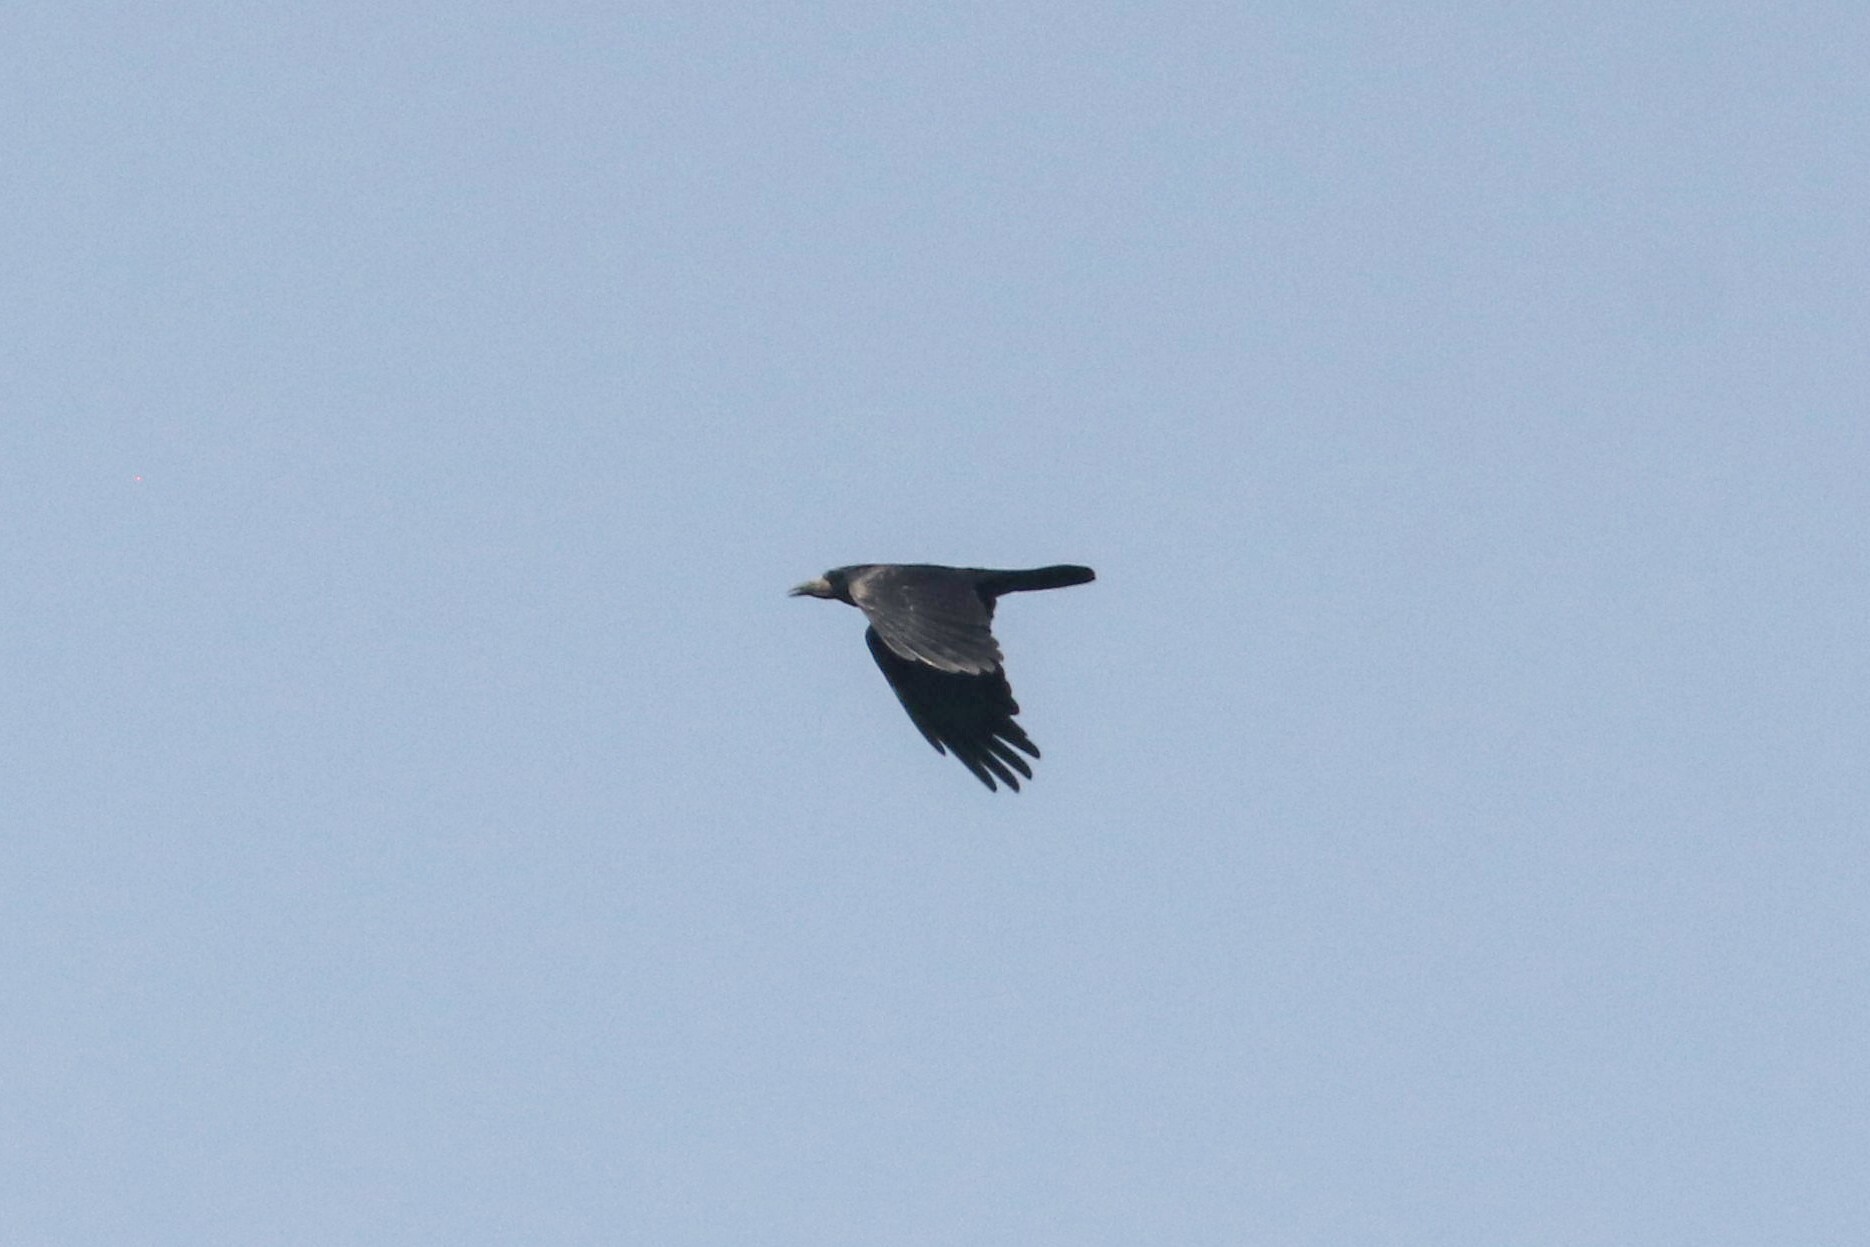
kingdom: Animalia
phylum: Chordata
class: Aves
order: Passeriformes
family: Corvidae
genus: Corvus
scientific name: Corvus frugilegus
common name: Rook
